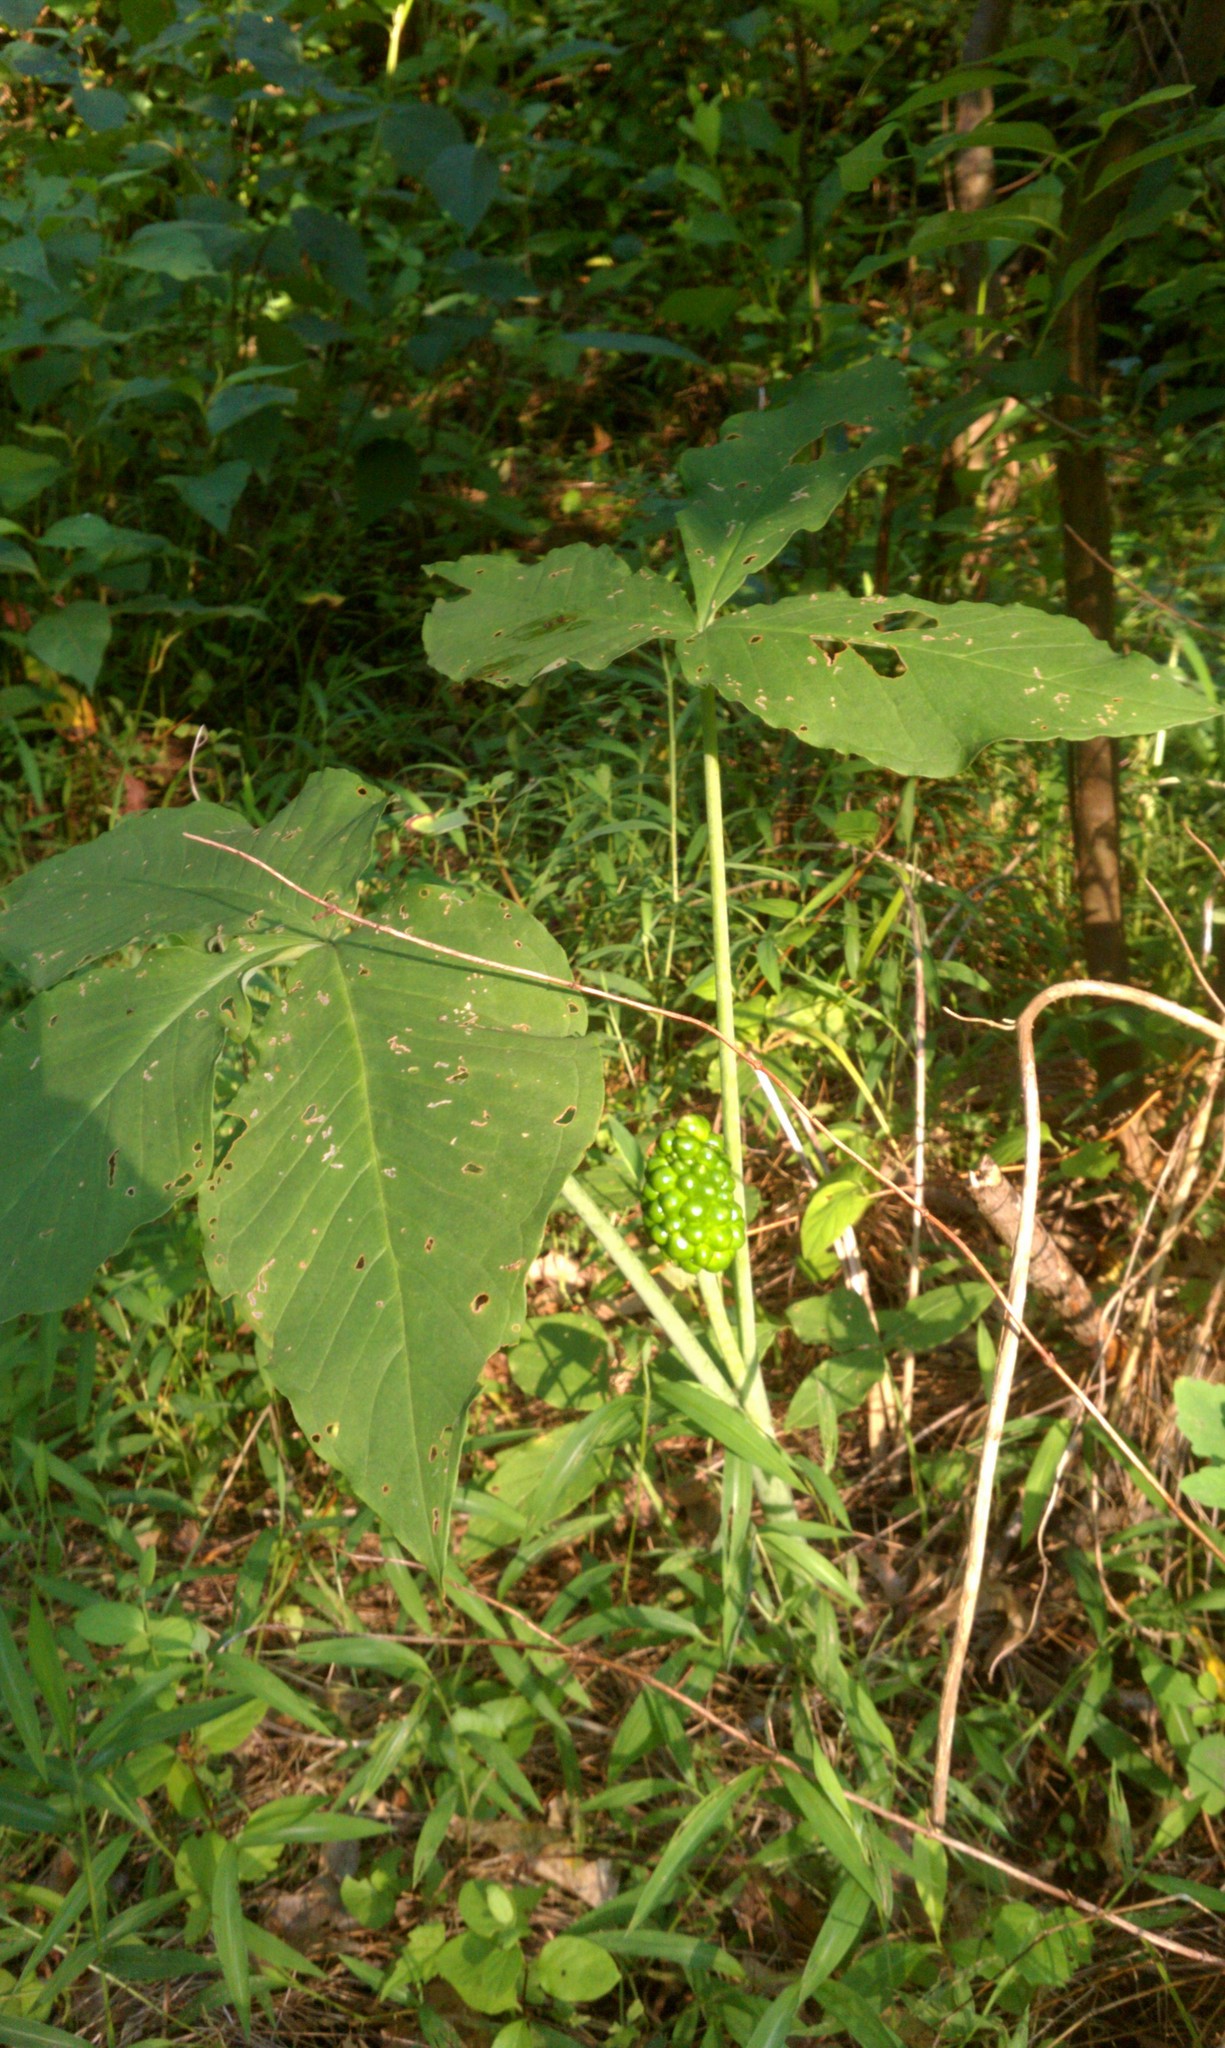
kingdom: Plantae
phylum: Tracheophyta
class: Liliopsida
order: Alismatales
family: Araceae
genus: Arisaema
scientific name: Arisaema triphyllum
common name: Jack-in-the-pulpit
